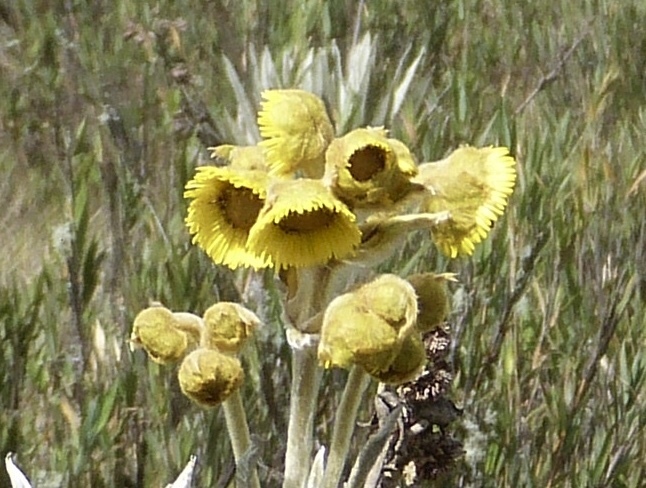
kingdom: Plantae
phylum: Tracheophyta
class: Magnoliopsida
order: Asterales
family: Asteraceae
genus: Espeletia
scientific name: Espeletia grandiflora
